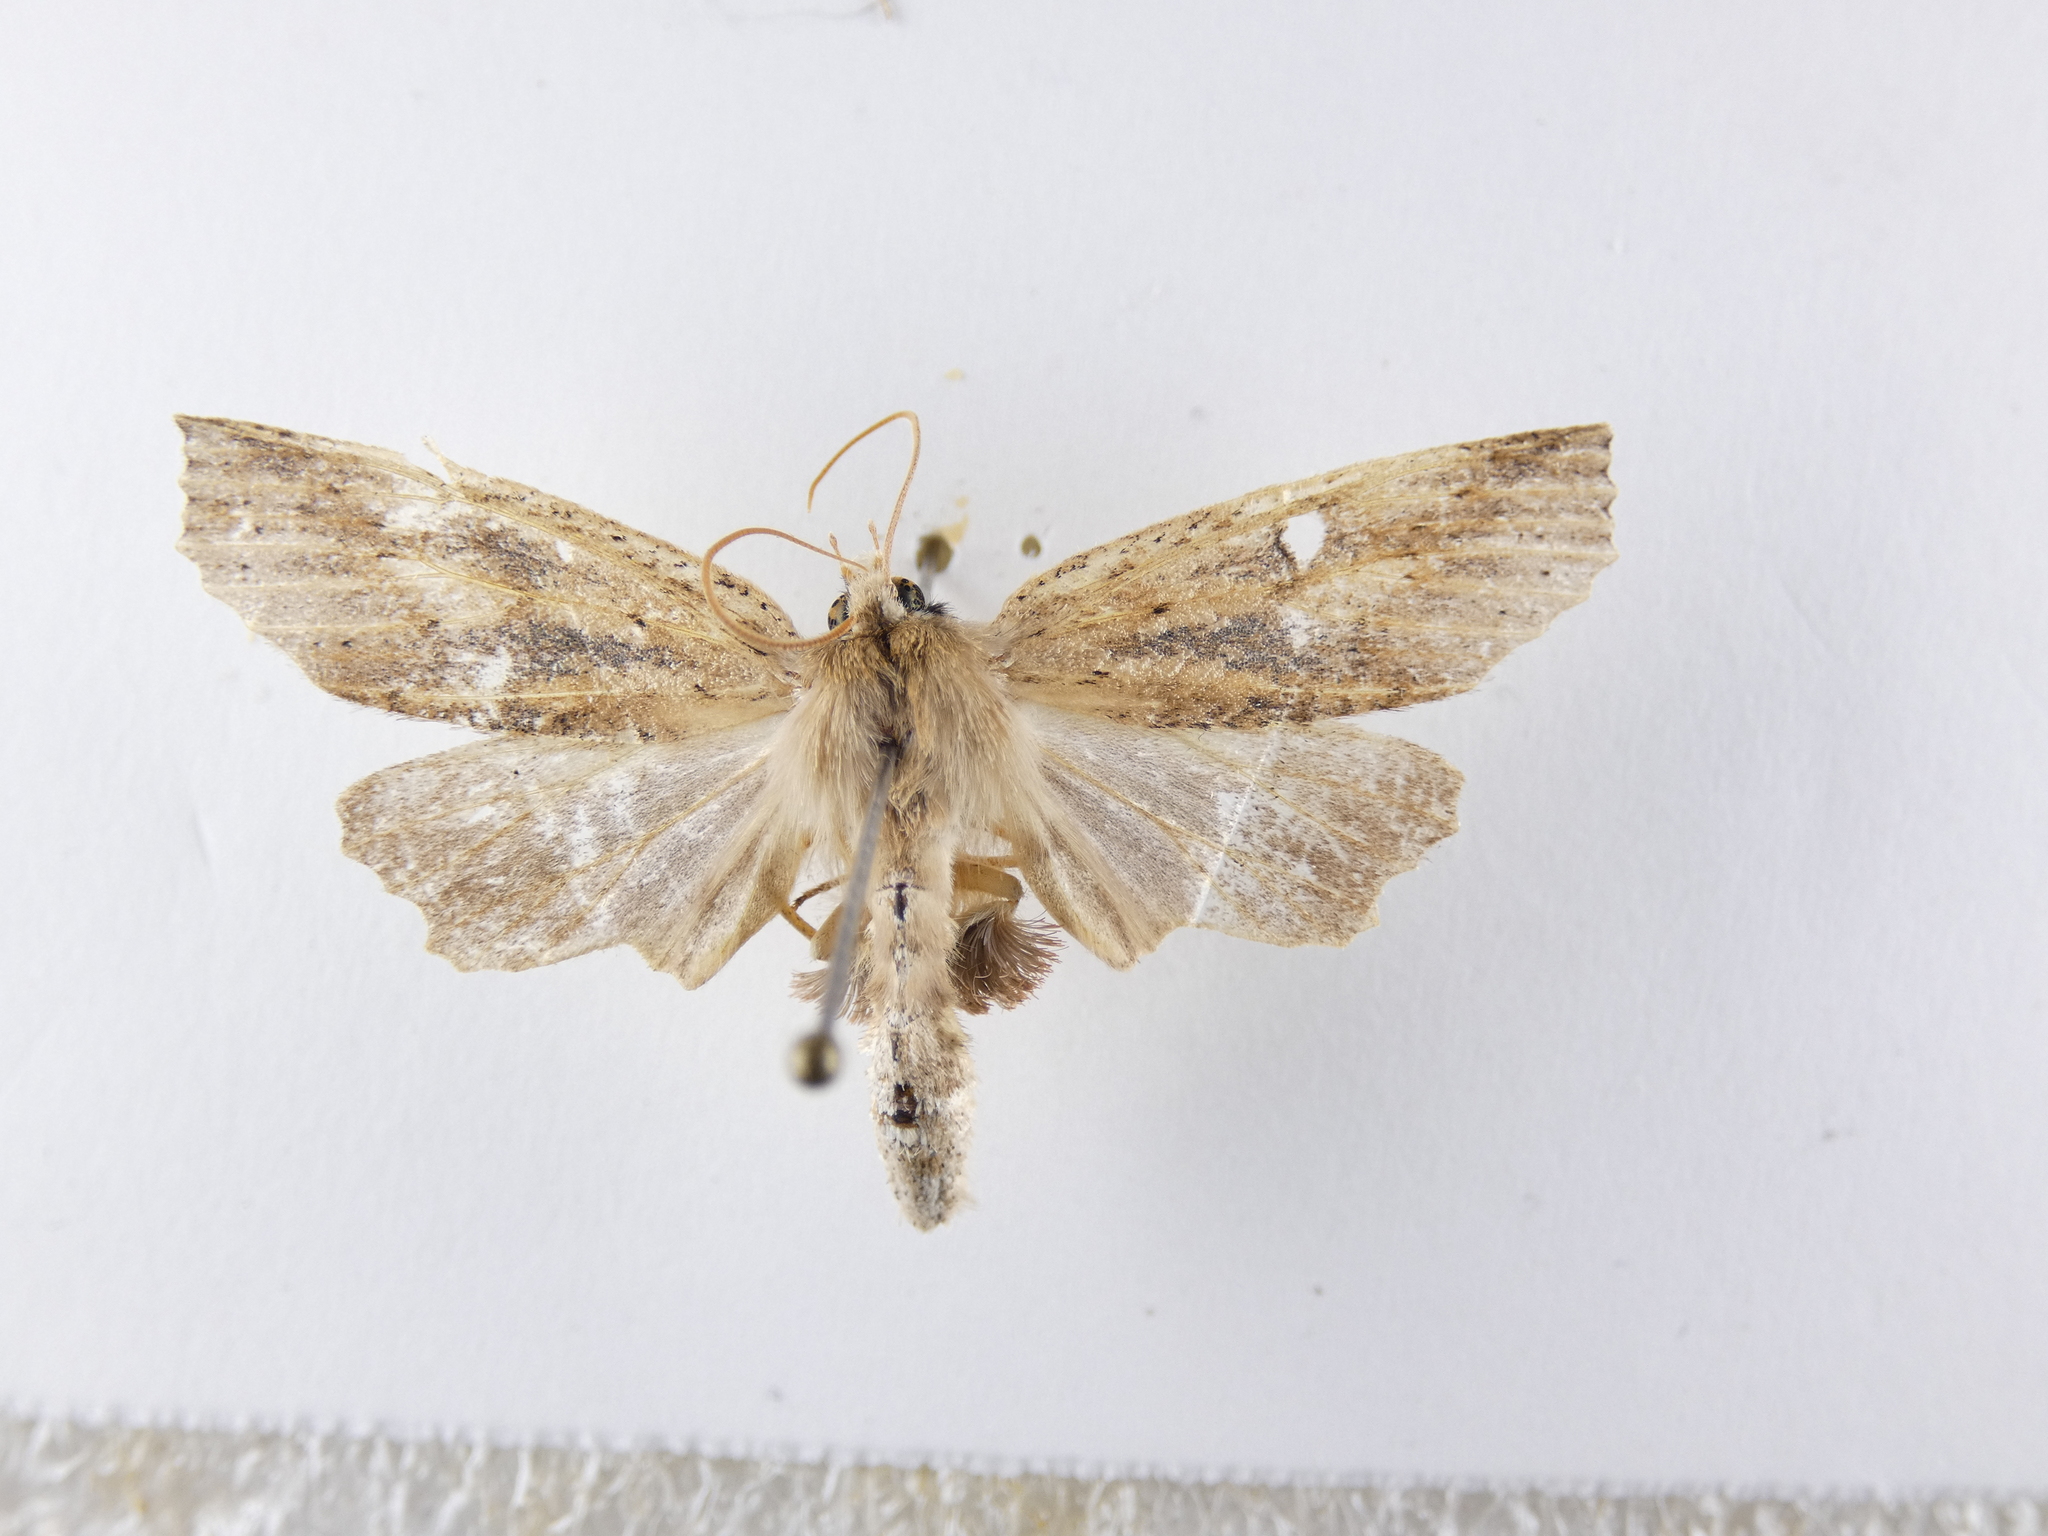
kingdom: Animalia
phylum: Arthropoda
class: Insecta
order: Lepidoptera
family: Geometridae
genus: Declana
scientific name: Declana leptomera
